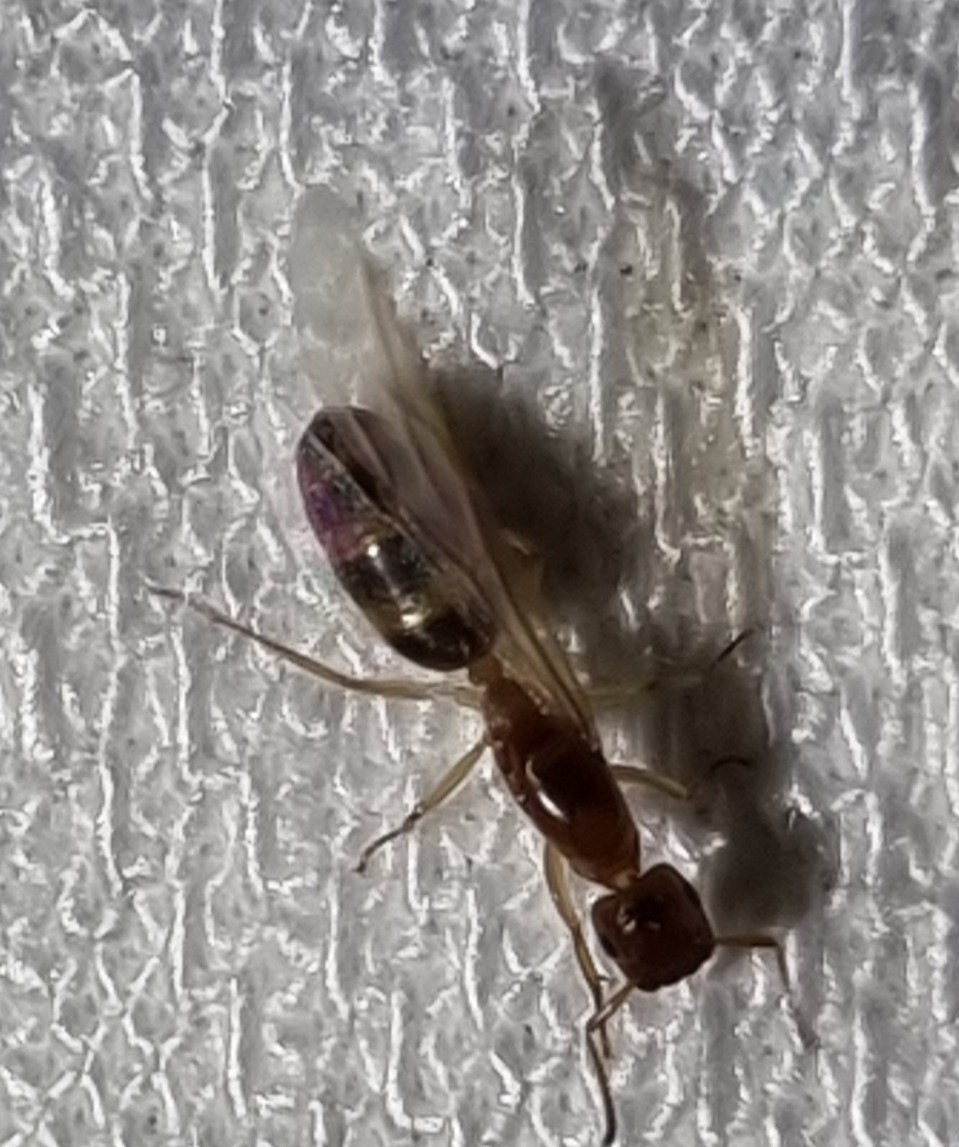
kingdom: Animalia
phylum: Arthropoda
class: Insecta
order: Hymenoptera
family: Formicidae
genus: Colobopsis
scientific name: Colobopsis
